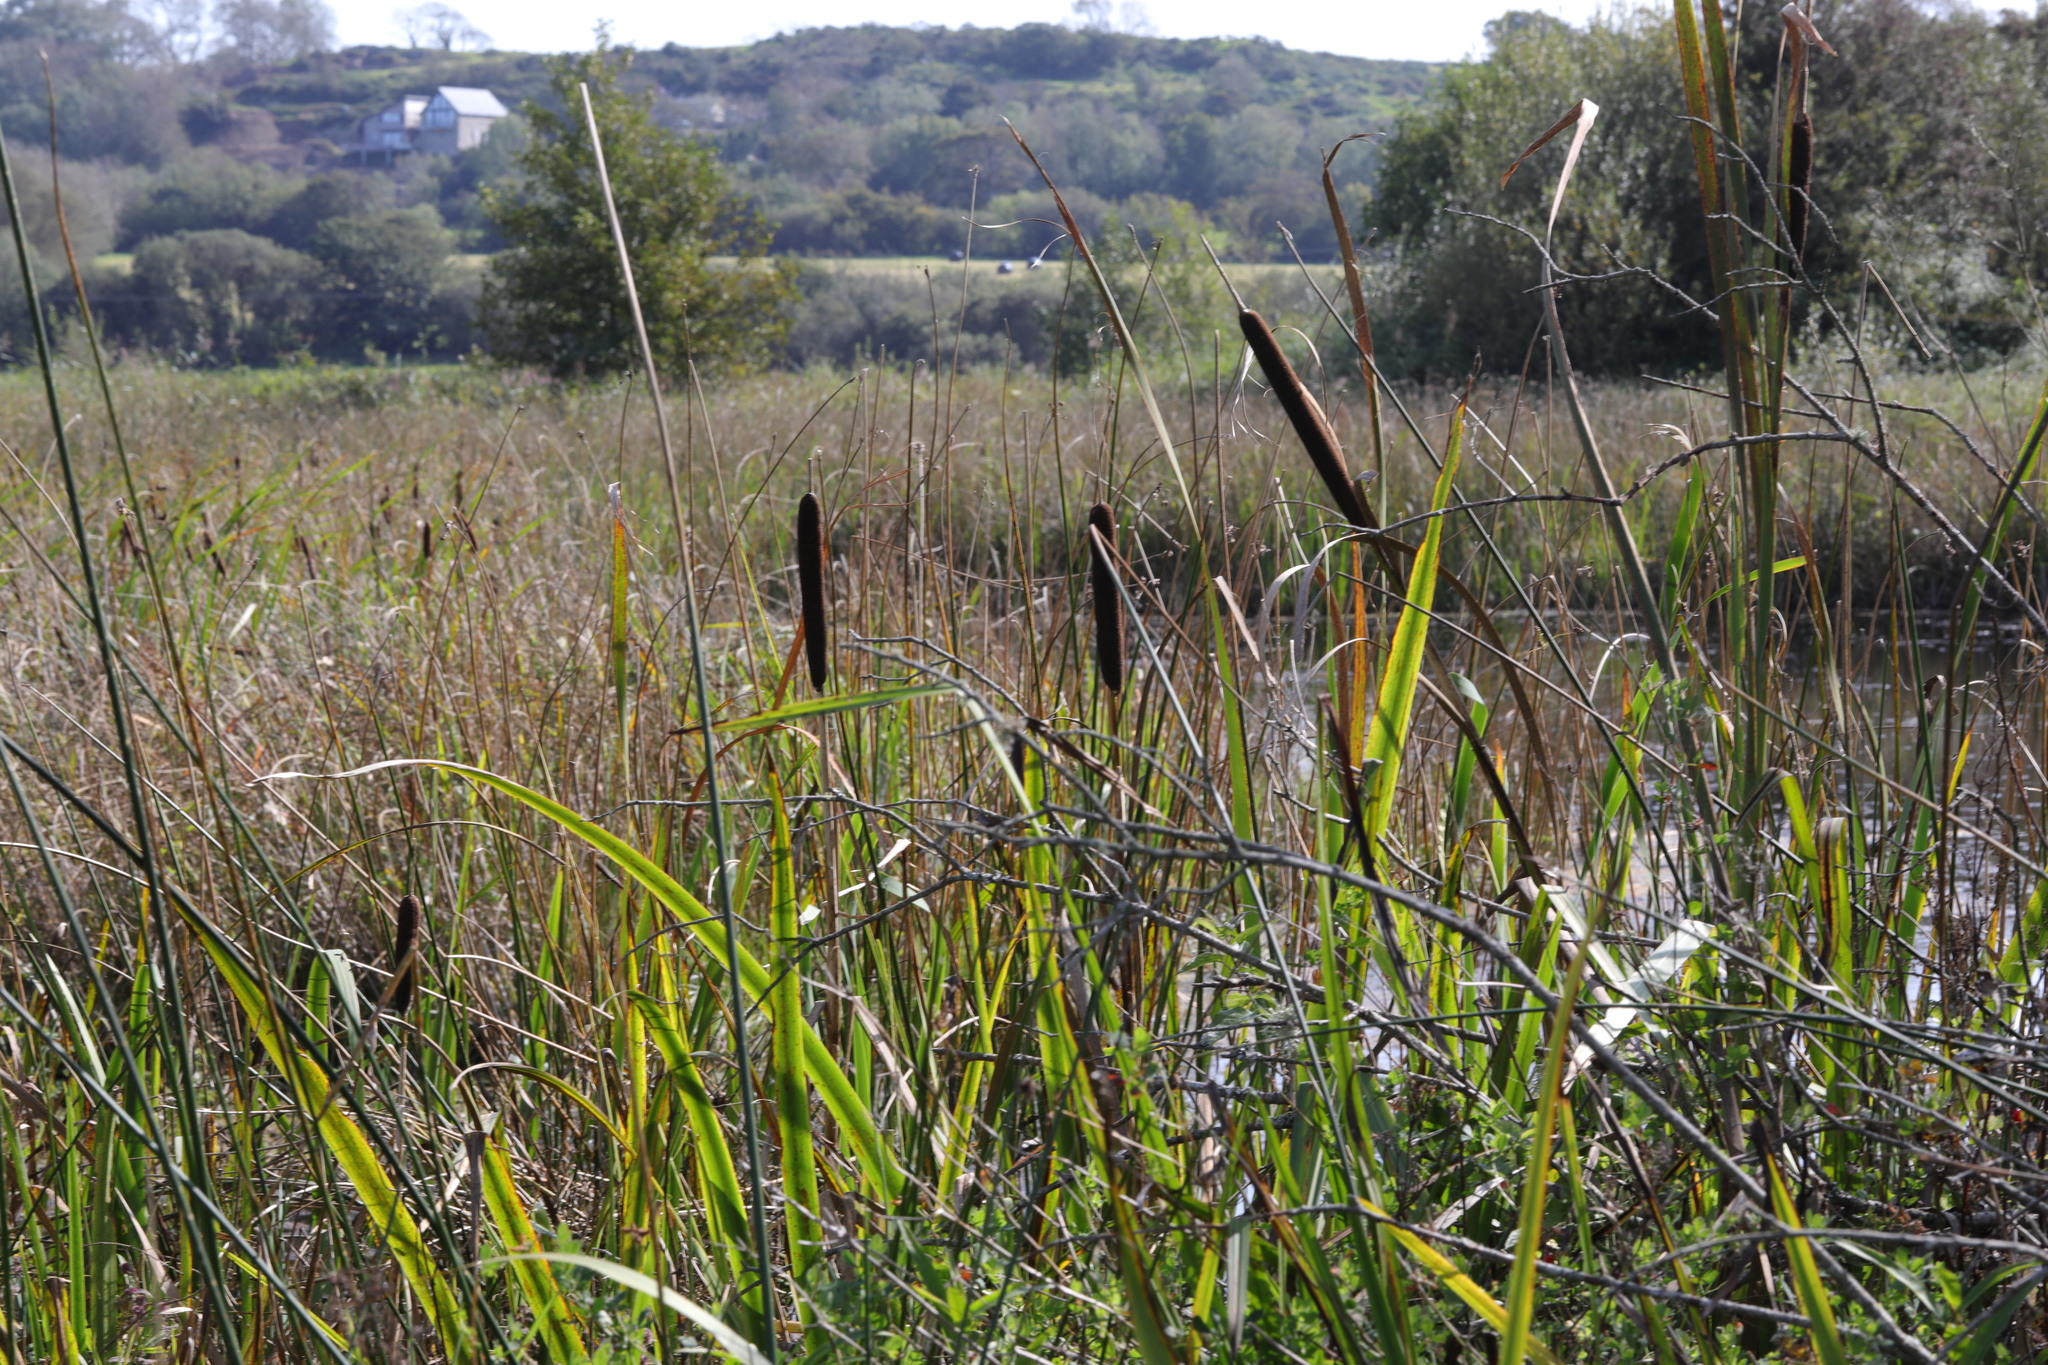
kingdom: Plantae
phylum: Tracheophyta
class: Liliopsida
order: Poales
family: Typhaceae
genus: Typha
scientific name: Typha latifolia
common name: Broadleaf cattail
